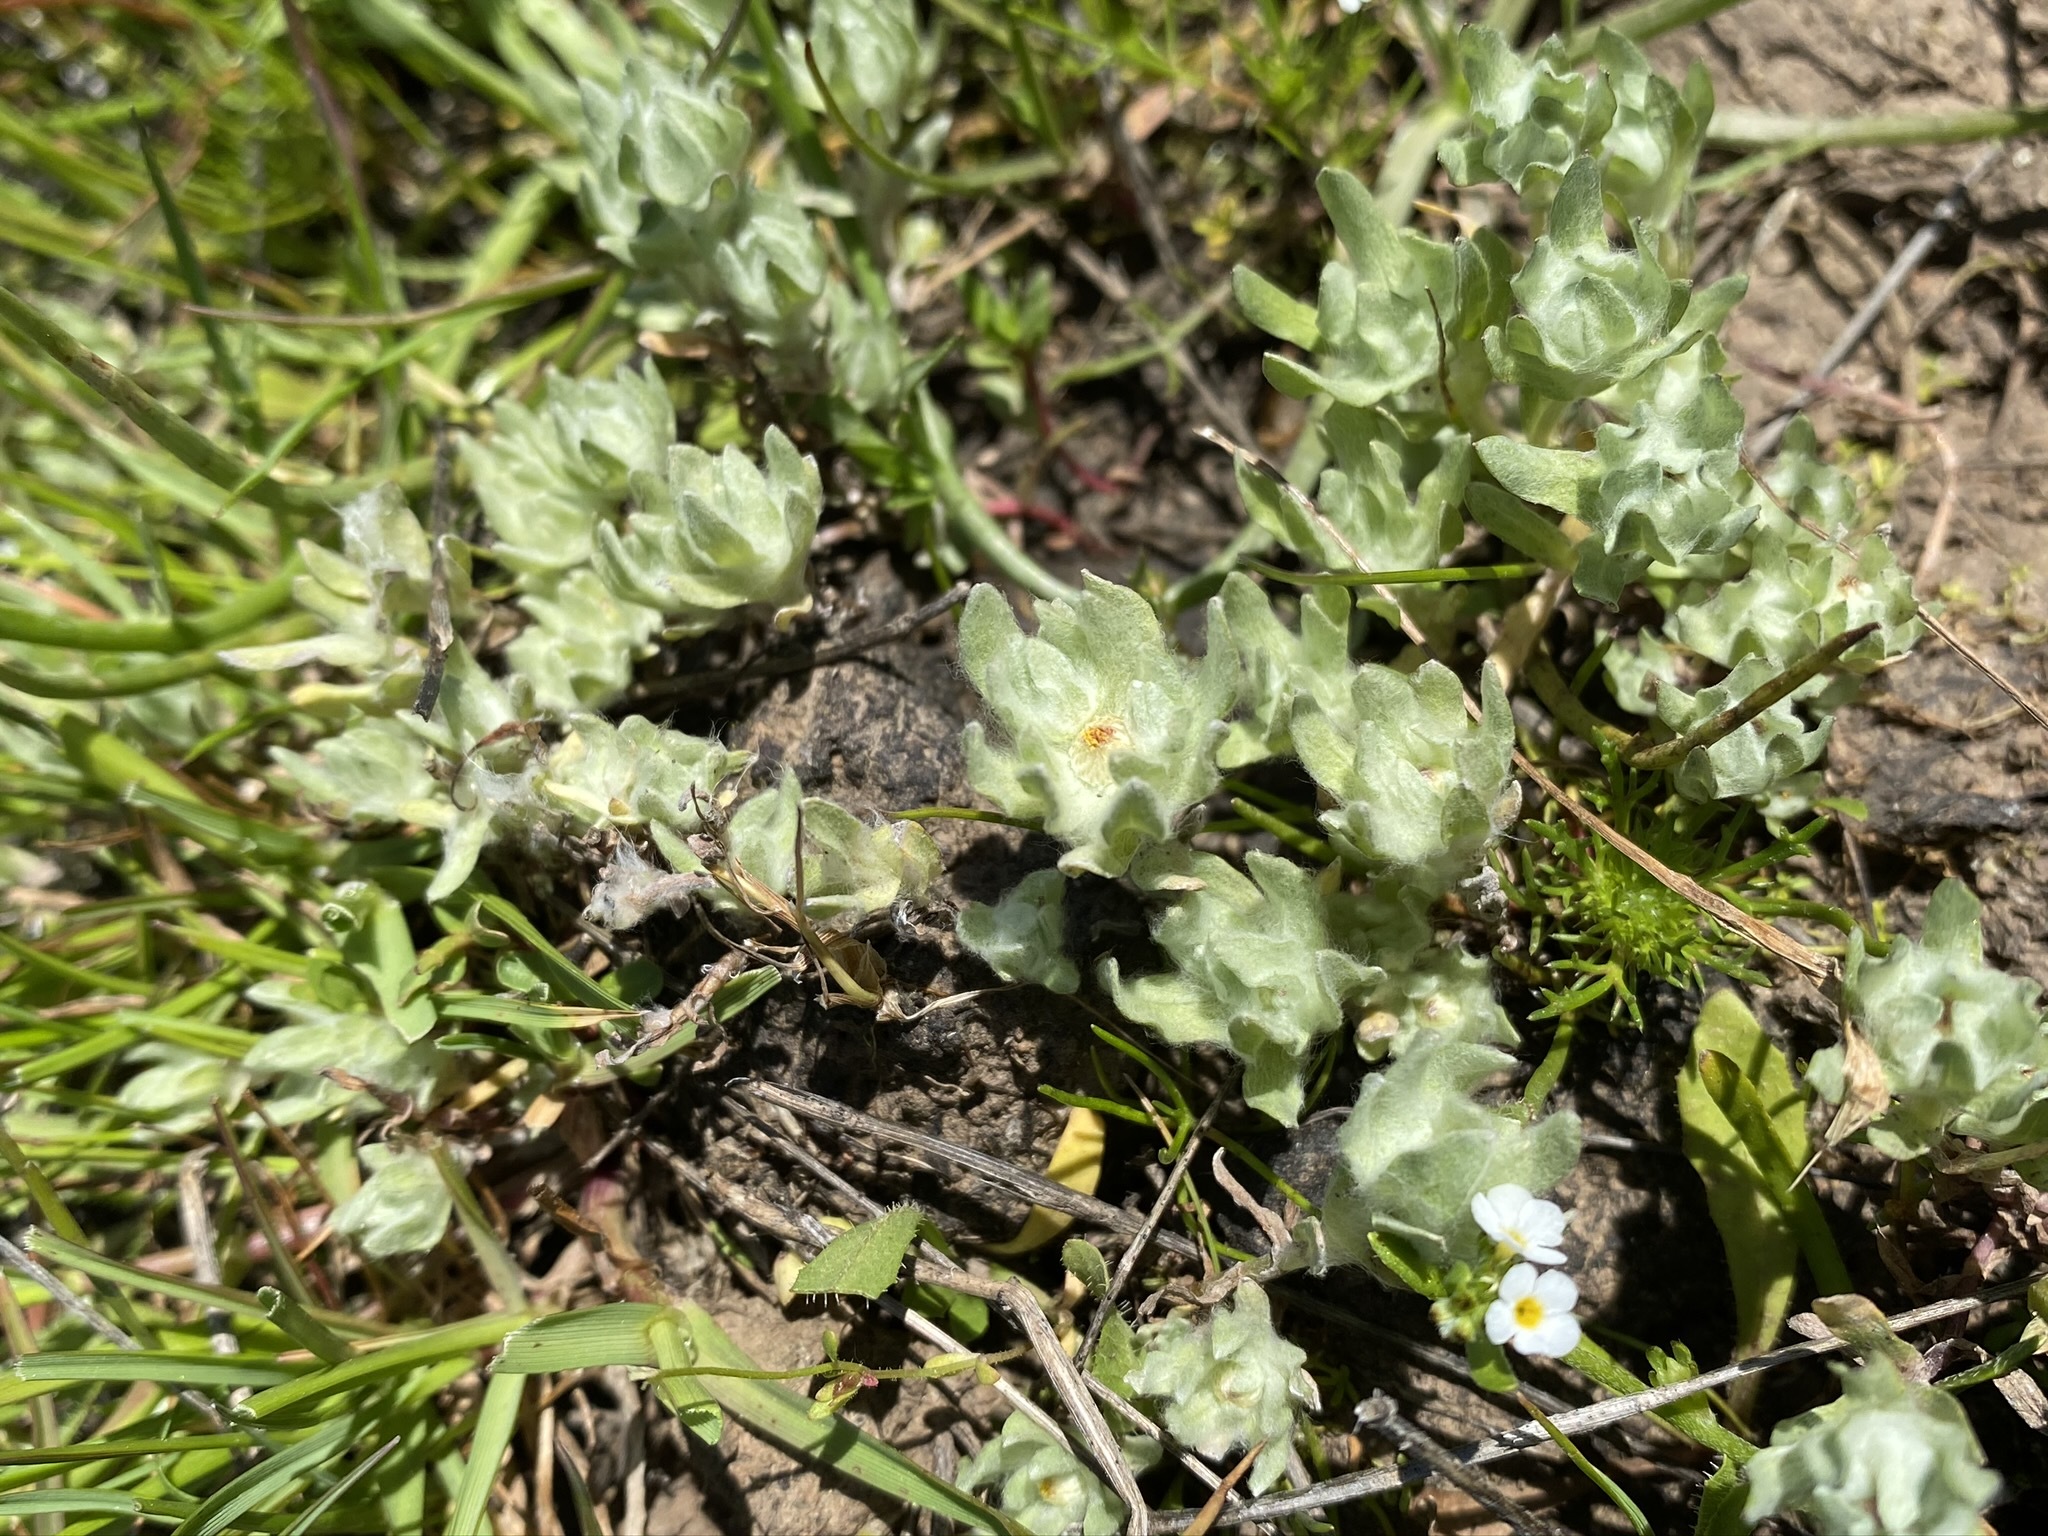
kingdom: Plantae
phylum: Tracheophyta
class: Magnoliopsida
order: Asterales
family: Asteraceae
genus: Psilocarphus
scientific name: Psilocarphus brevissimus
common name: Dwarf woollyheads
